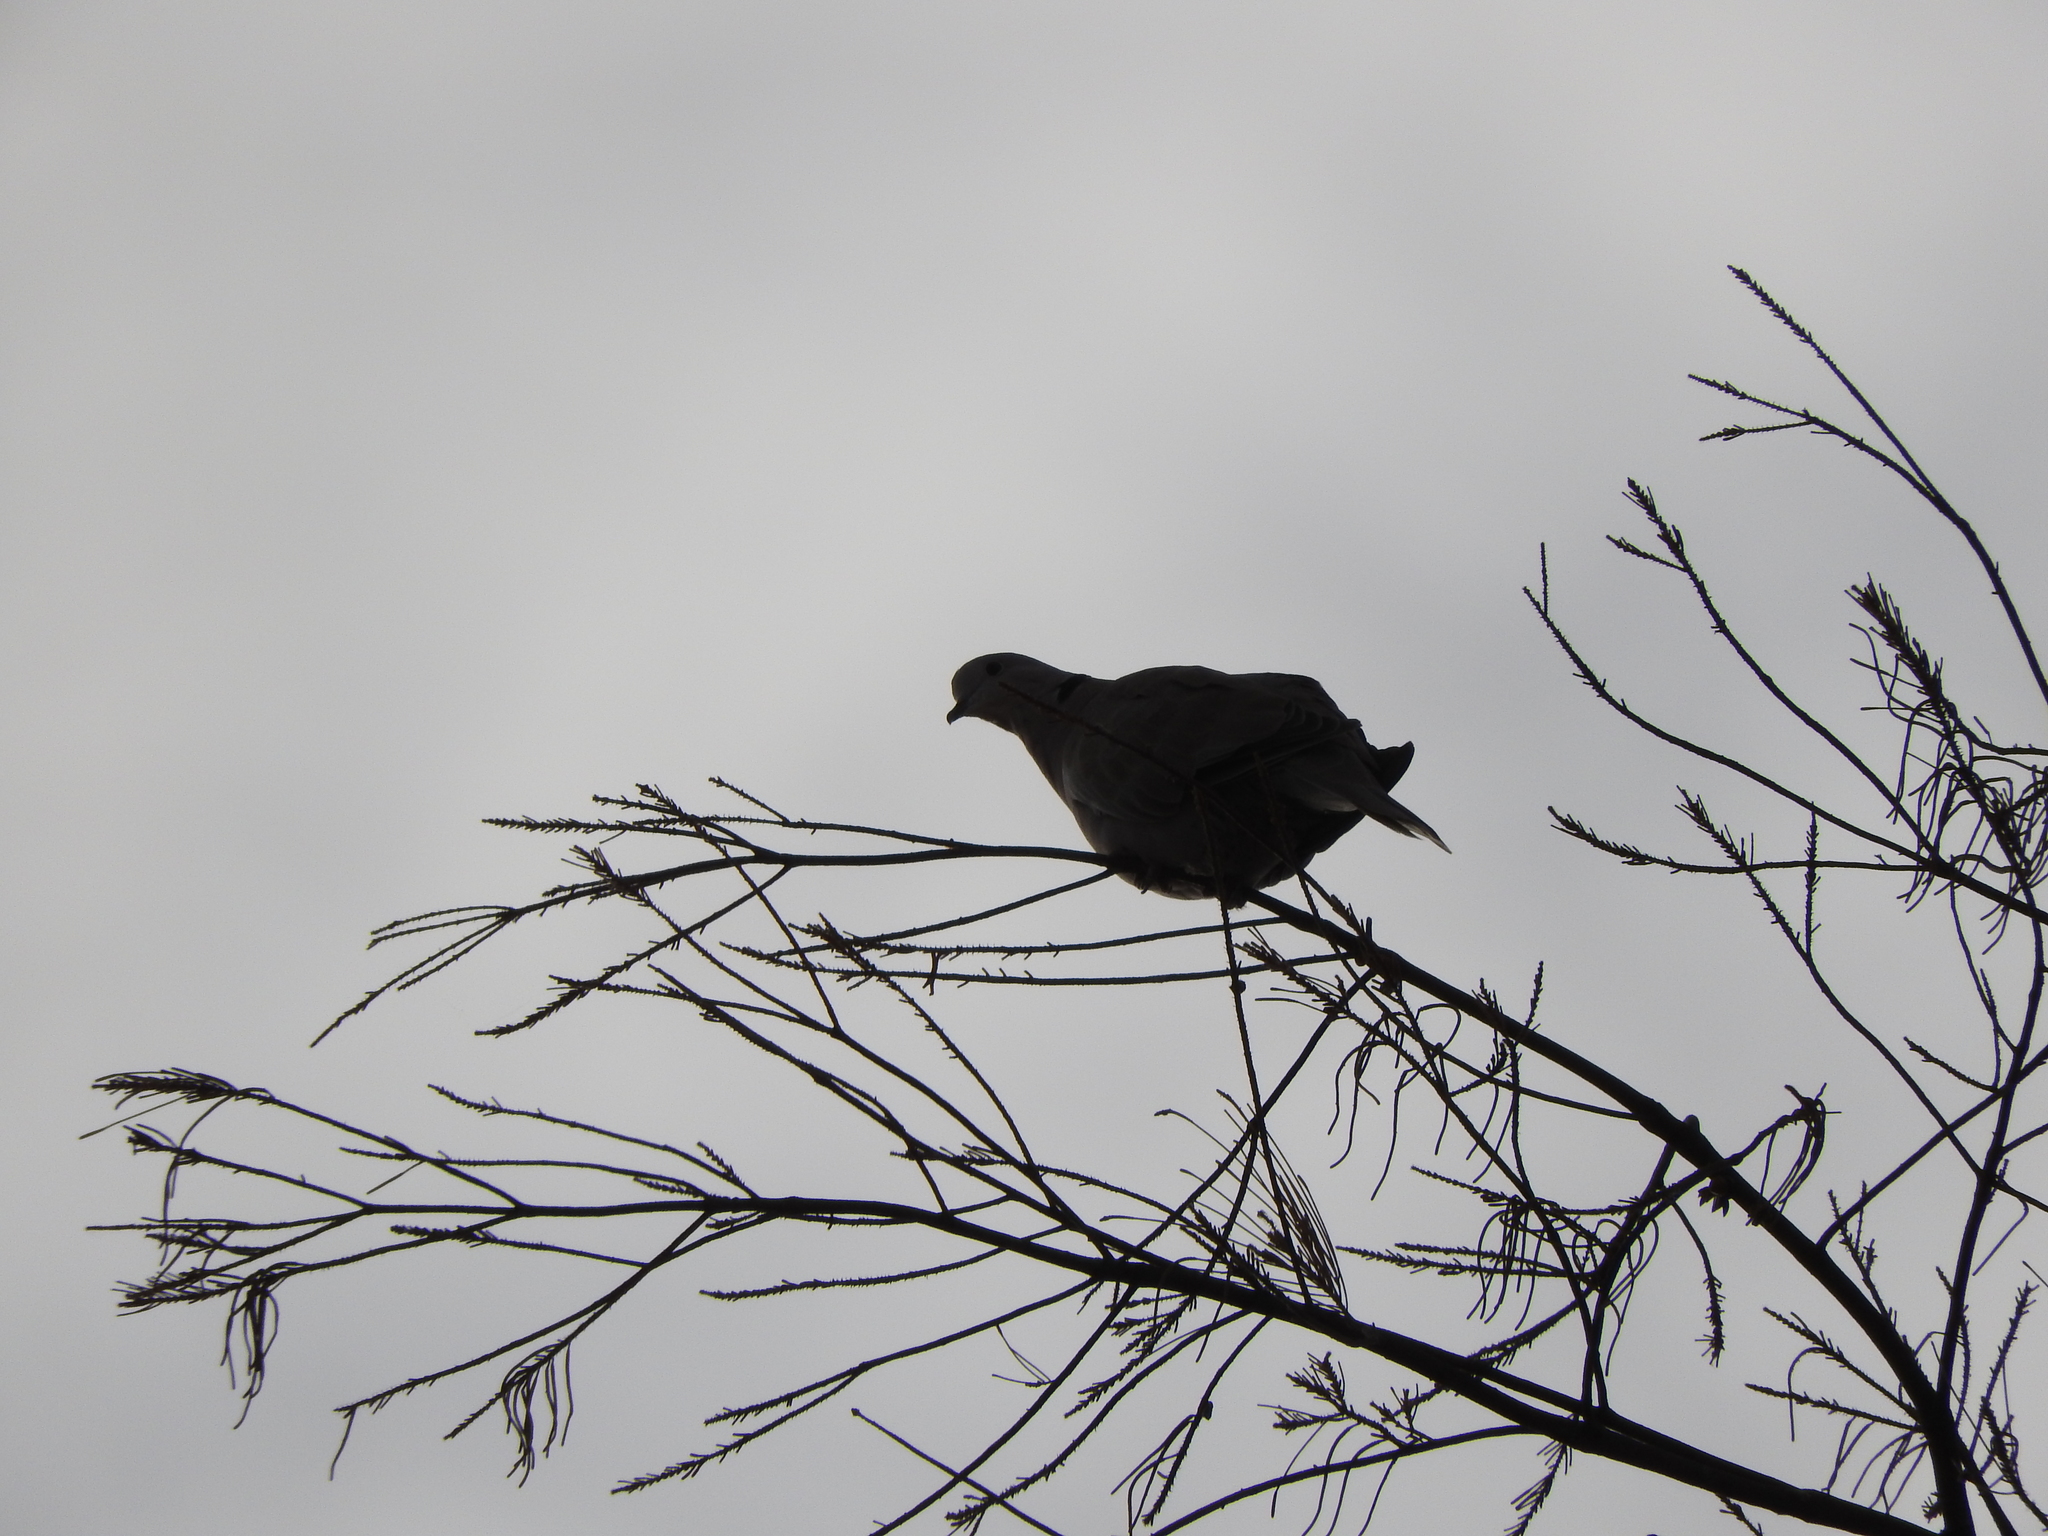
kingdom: Animalia
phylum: Chordata
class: Aves
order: Columbiformes
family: Columbidae
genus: Streptopelia
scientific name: Streptopelia decaocto
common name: Eurasian collared dove
